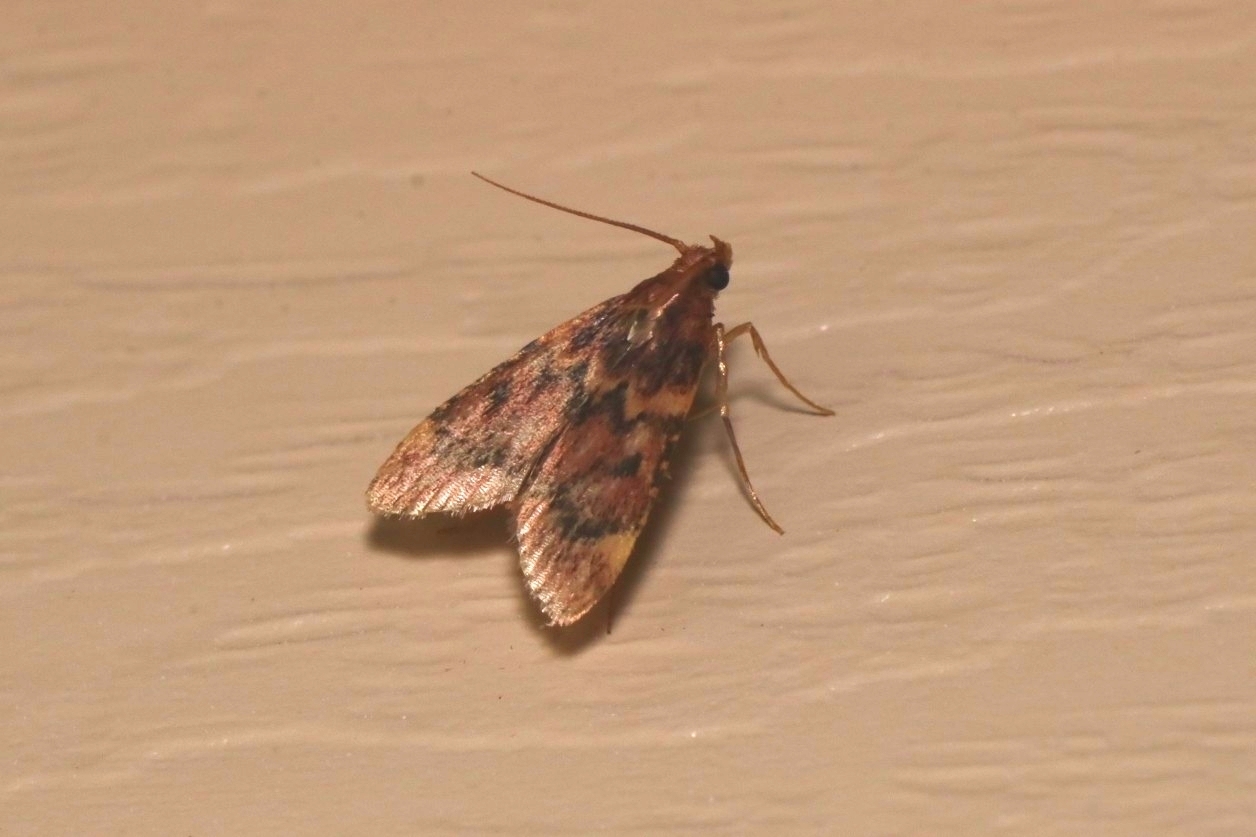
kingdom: Animalia
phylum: Arthropoda
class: Insecta
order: Lepidoptera
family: Pyralidae
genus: Aglossa
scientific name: Aglossa cuprina
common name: Grease moth
